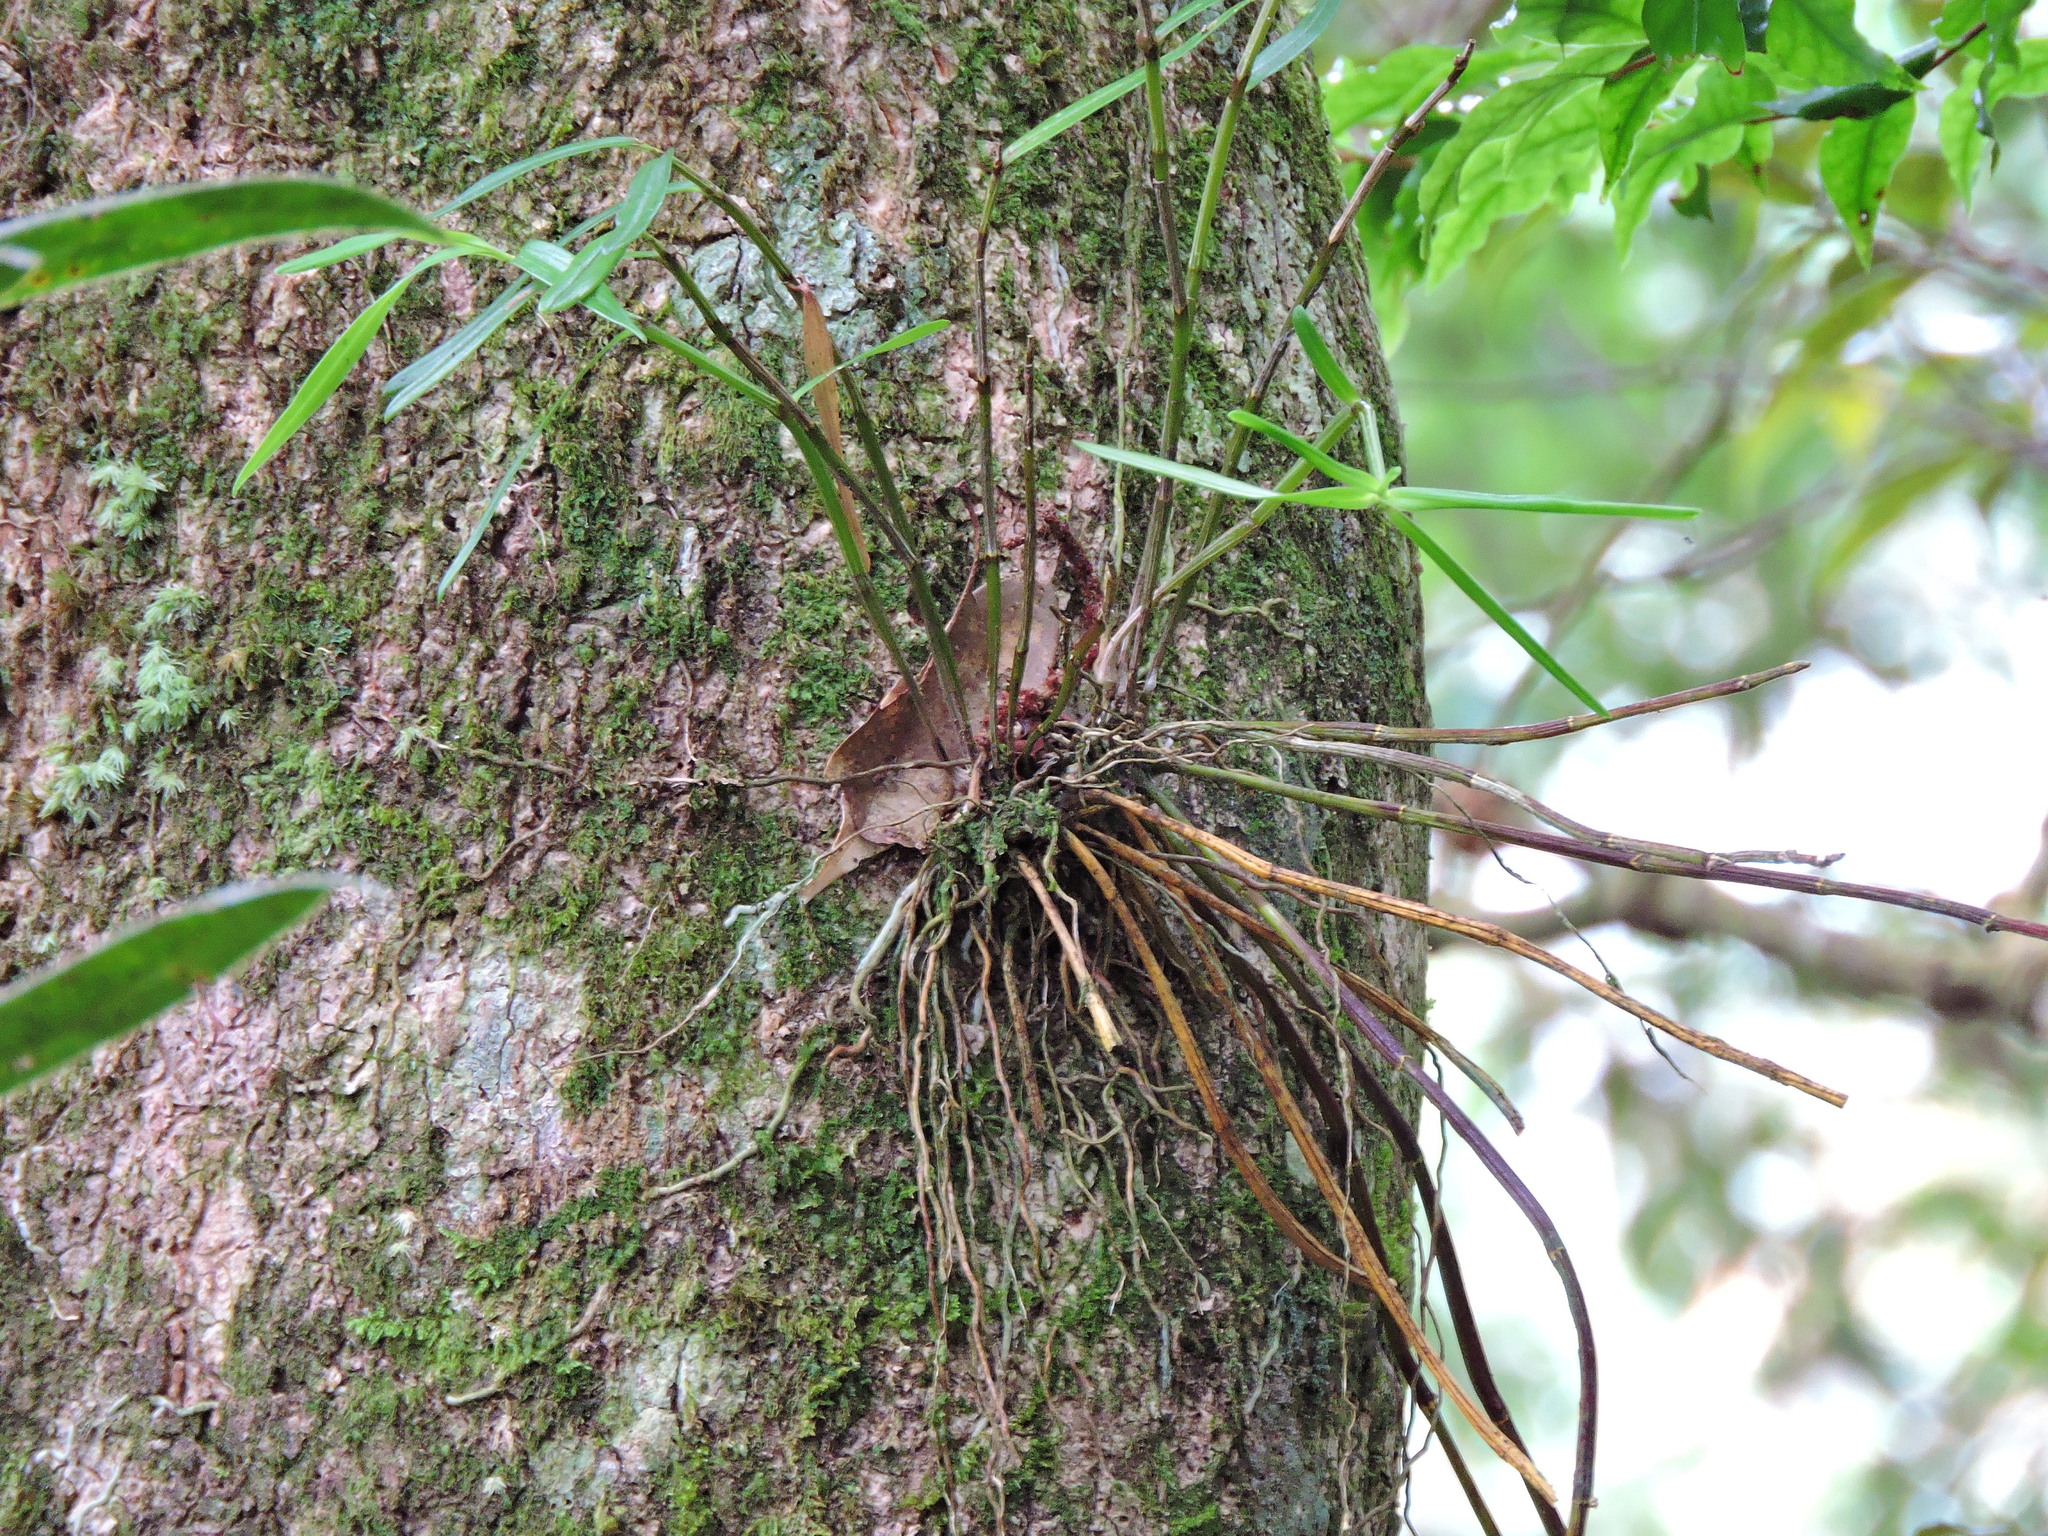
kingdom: Plantae
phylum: Tracheophyta
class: Liliopsida
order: Asparagales
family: Orchidaceae
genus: Dendrobium
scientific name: Dendrobium moniliforme
